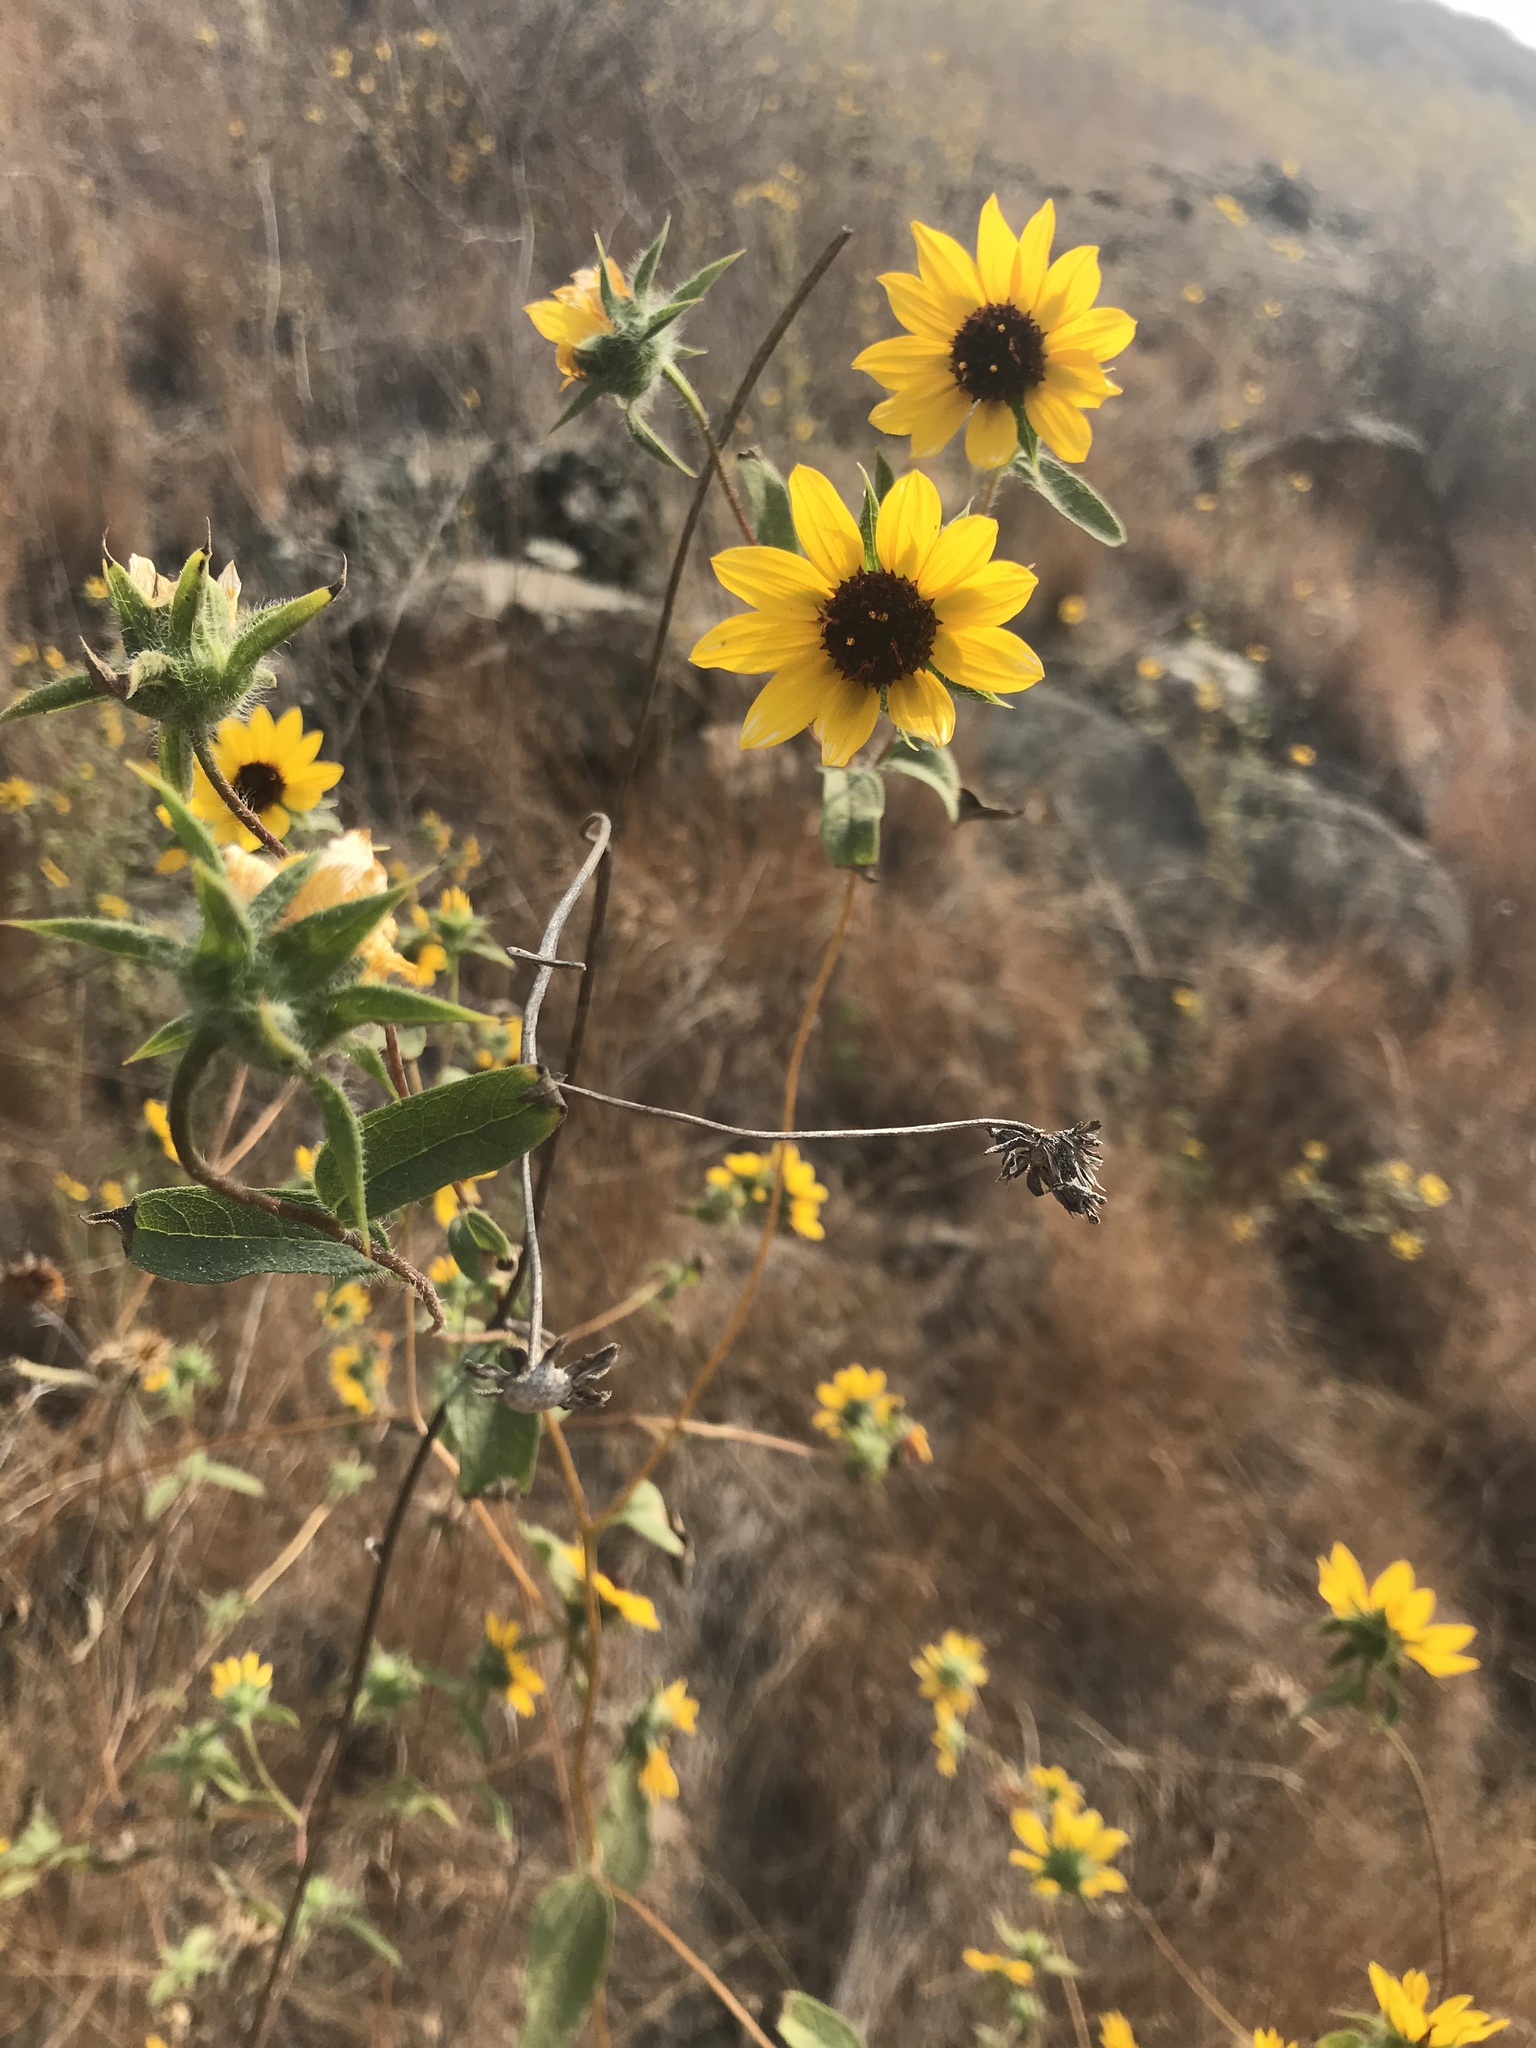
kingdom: Plantae
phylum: Tracheophyta
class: Magnoliopsida
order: Asterales
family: Asteraceae
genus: Helianthus
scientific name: Helianthus exilis
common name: Serpentine sunflower
